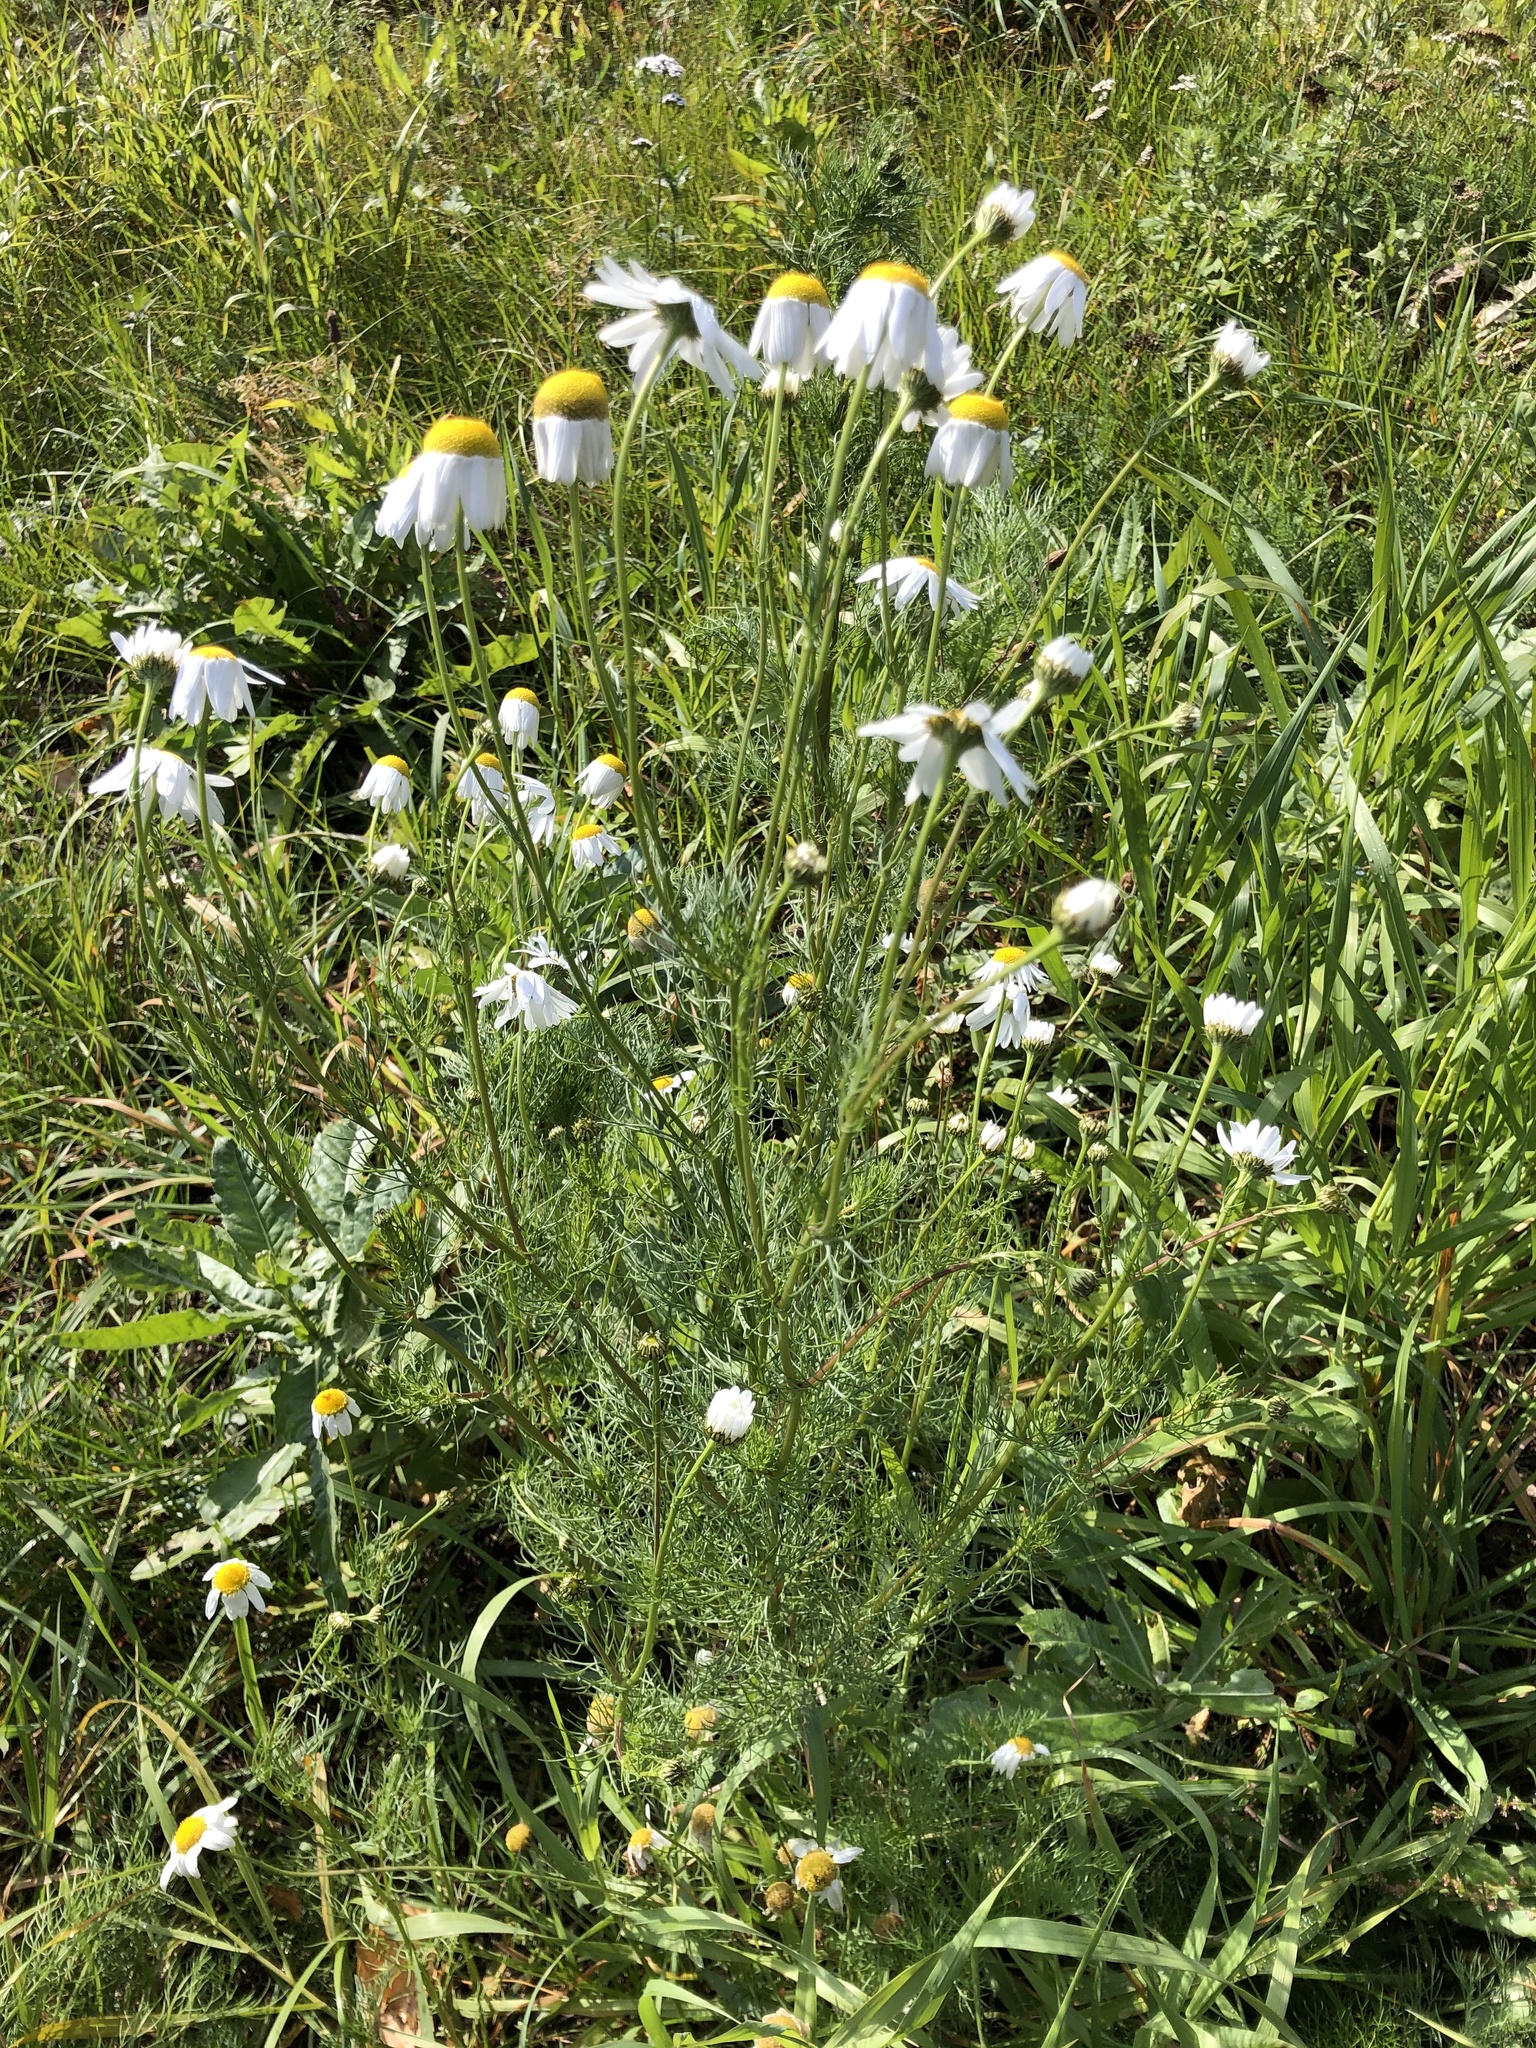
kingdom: Plantae
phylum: Tracheophyta
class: Magnoliopsida
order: Asterales
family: Asteraceae
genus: Tripleurospermum
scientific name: Tripleurospermum inodorum
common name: Scentless mayweed
